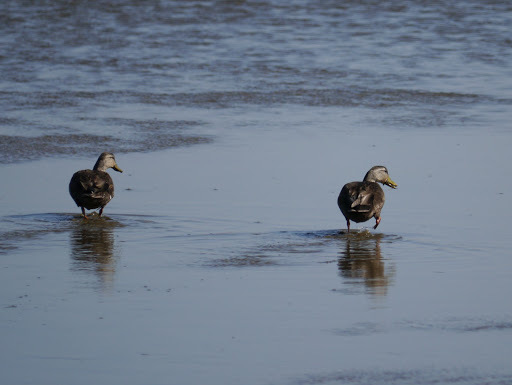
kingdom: Animalia
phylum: Chordata
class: Aves
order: Anseriformes
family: Anatidae
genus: Anas
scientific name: Anas rubripes
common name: American black duck
